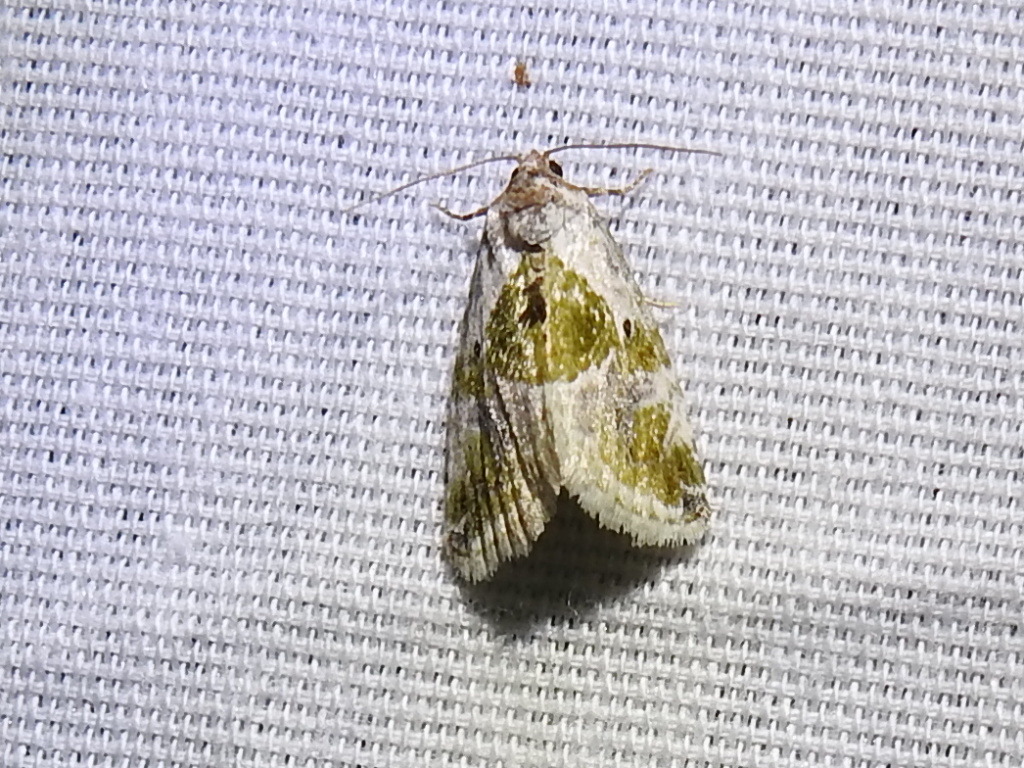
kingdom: Animalia
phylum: Arthropoda
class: Insecta
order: Lepidoptera
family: Noctuidae
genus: Maliattha
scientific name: Maliattha synochitis
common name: Black-dotted glyph
